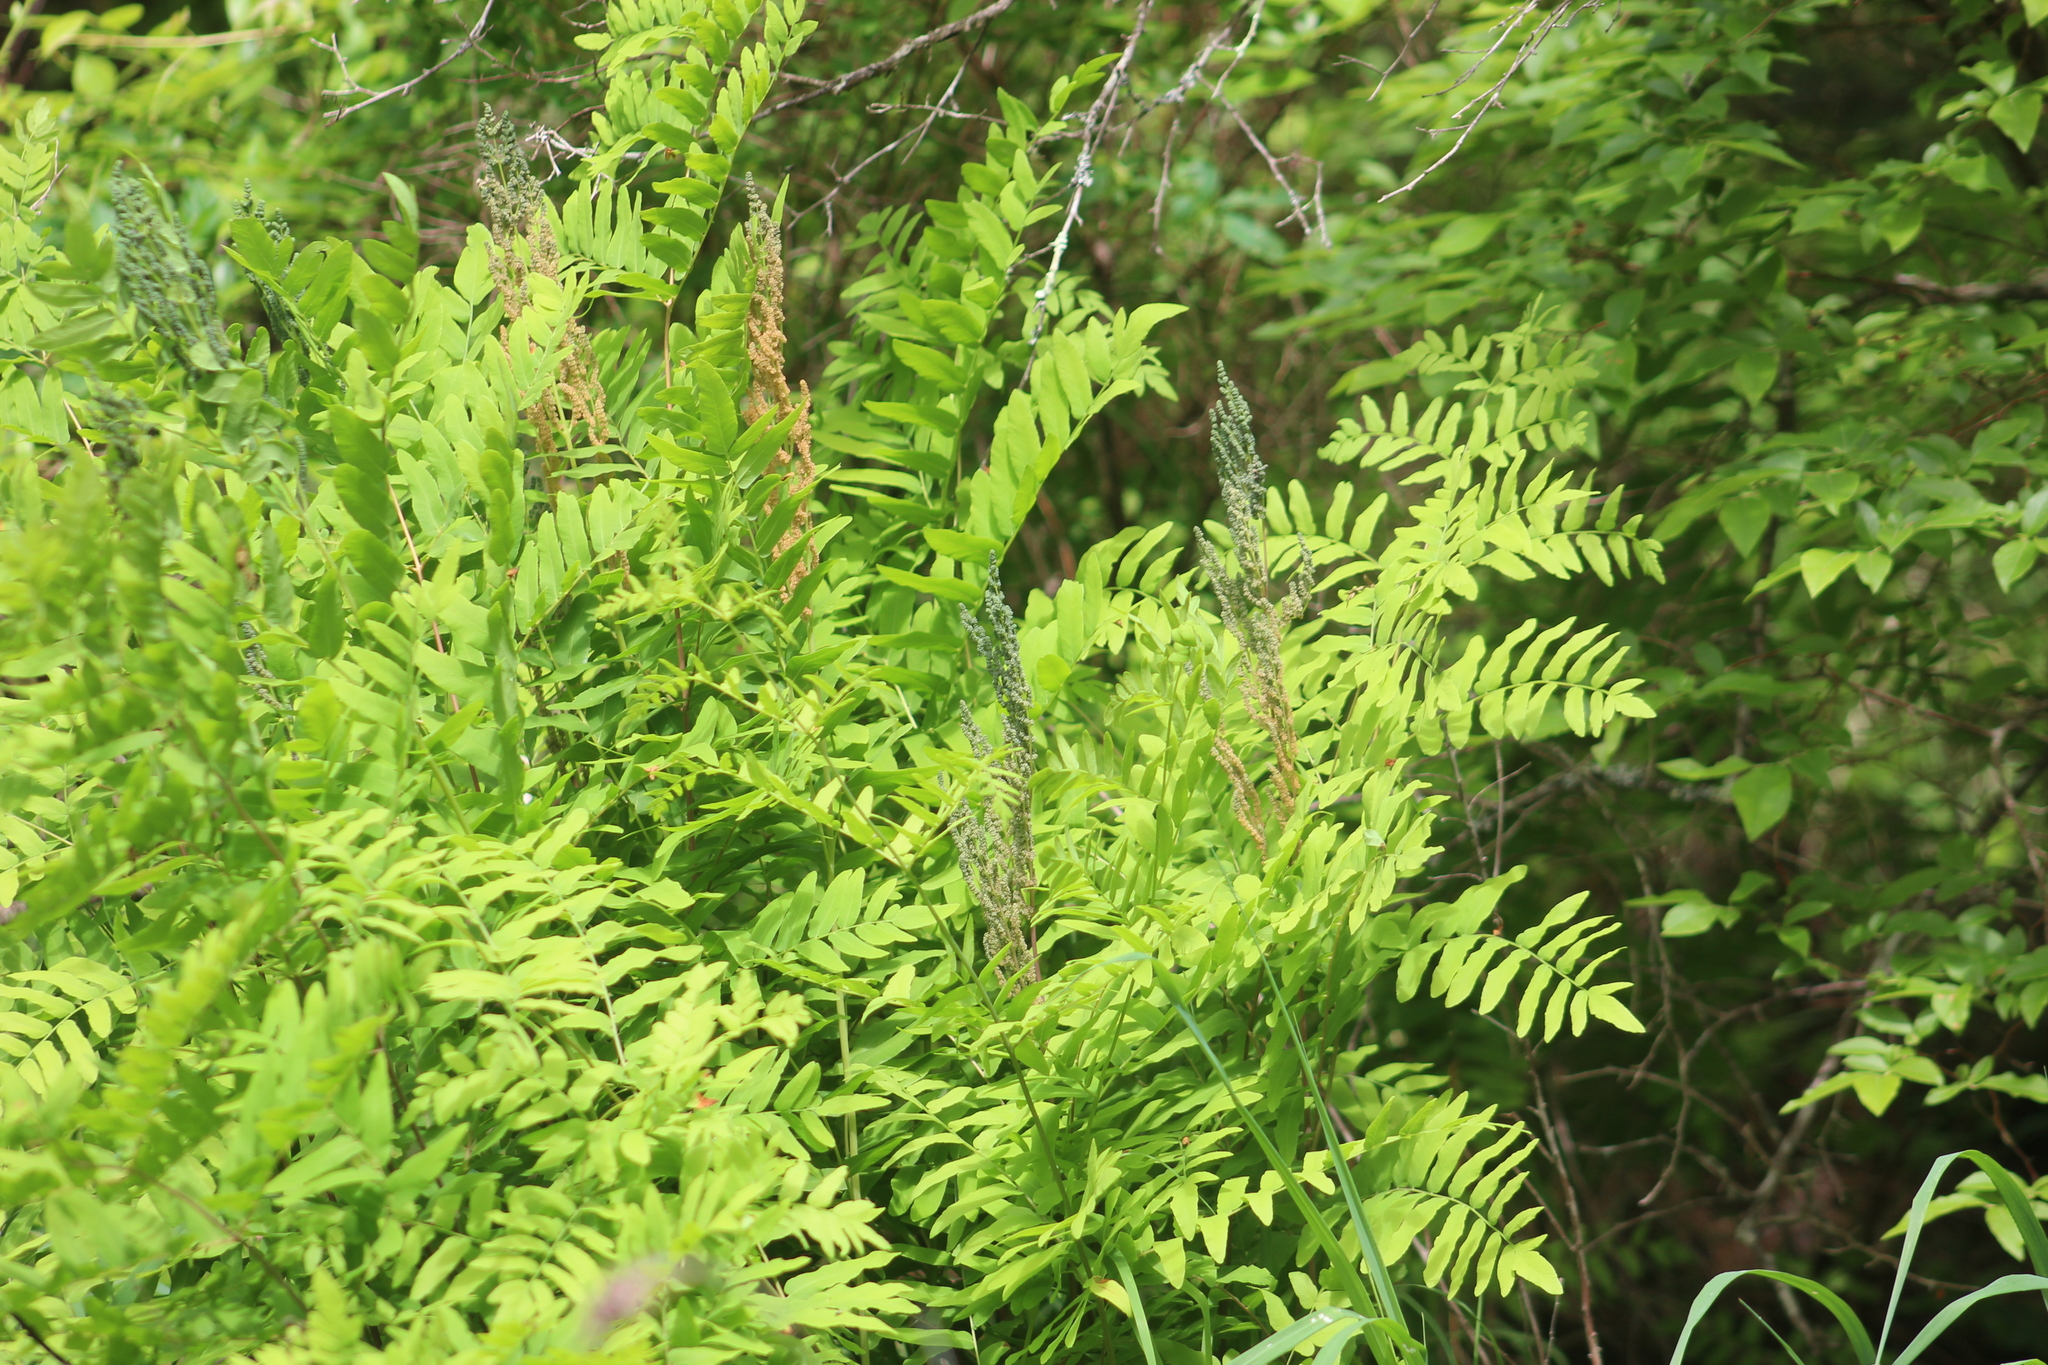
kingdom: Plantae
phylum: Tracheophyta
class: Polypodiopsida
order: Osmundales
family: Osmundaceae
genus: Osmunda
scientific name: Osmunda spectabilis
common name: American royal fern
